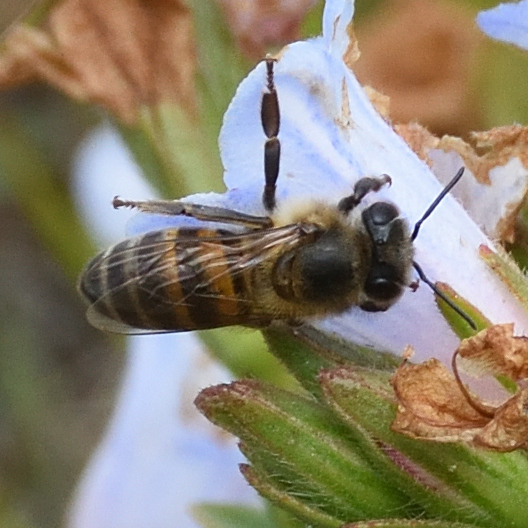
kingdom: Animalia
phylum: Arthropoda
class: Insecta
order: Hymenoptera
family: Apidae
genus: Apis
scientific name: Apis mellifera
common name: Honey bee
